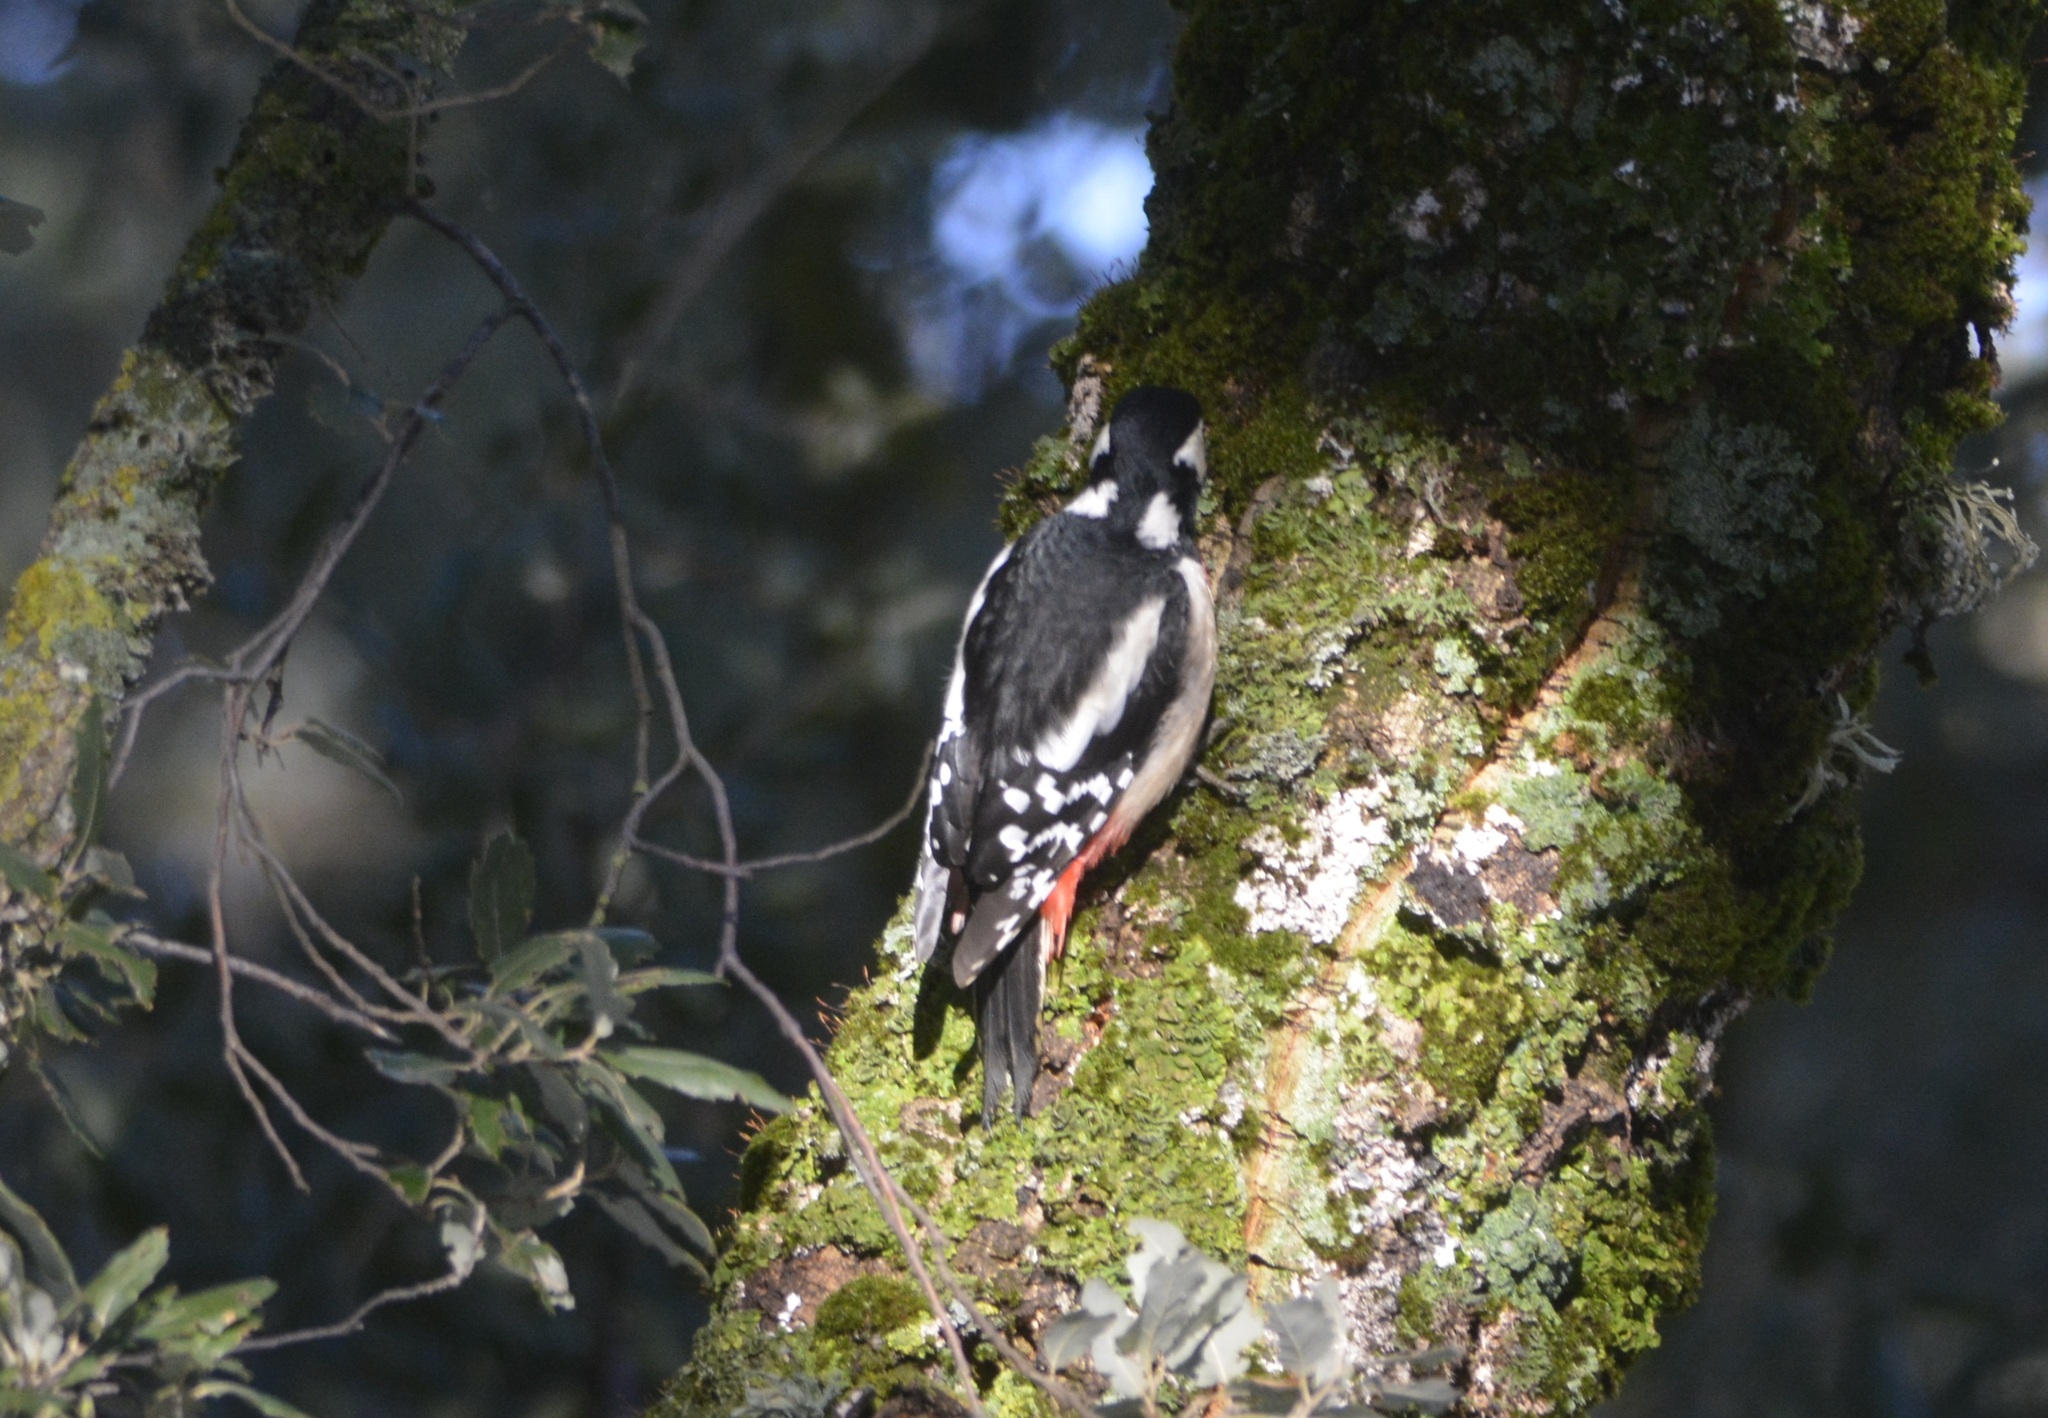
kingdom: Animalia
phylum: Chordata
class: Aves
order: Piciformes
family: Picidae
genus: Dendrocopos
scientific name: Dendrocopos major
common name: Great spotted woodpecker
